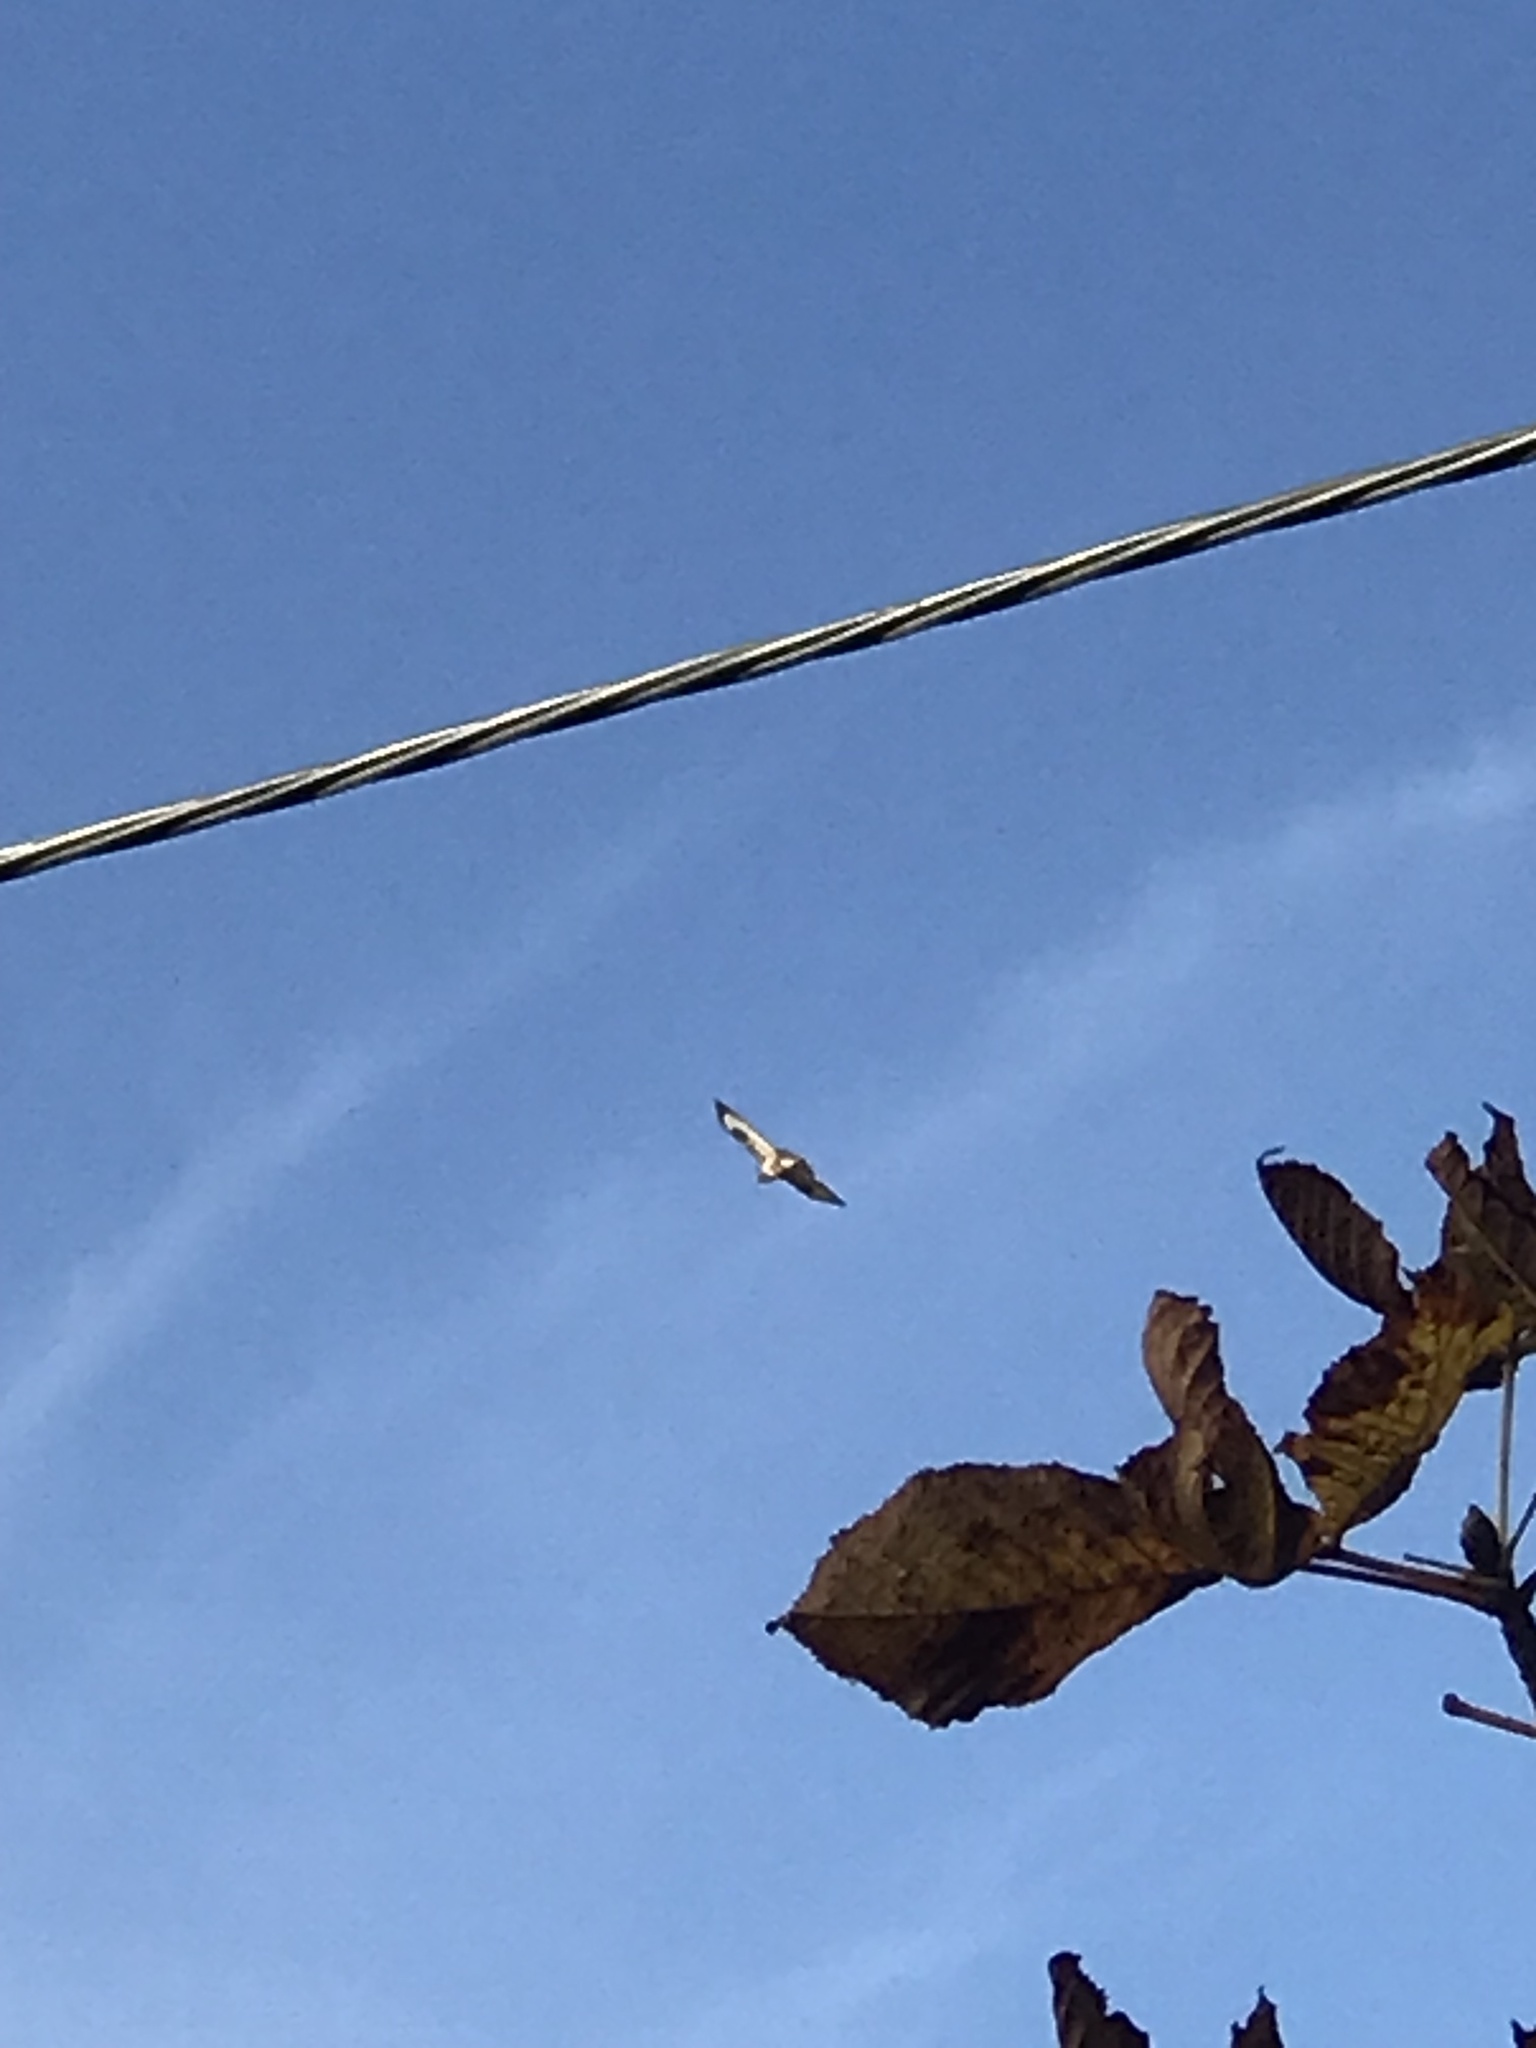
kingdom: Animalia
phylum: Chordata
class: Aves
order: Accipitriformes
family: Accipitridae
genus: Buteo
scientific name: Buteo buteo
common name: Common buzzard
